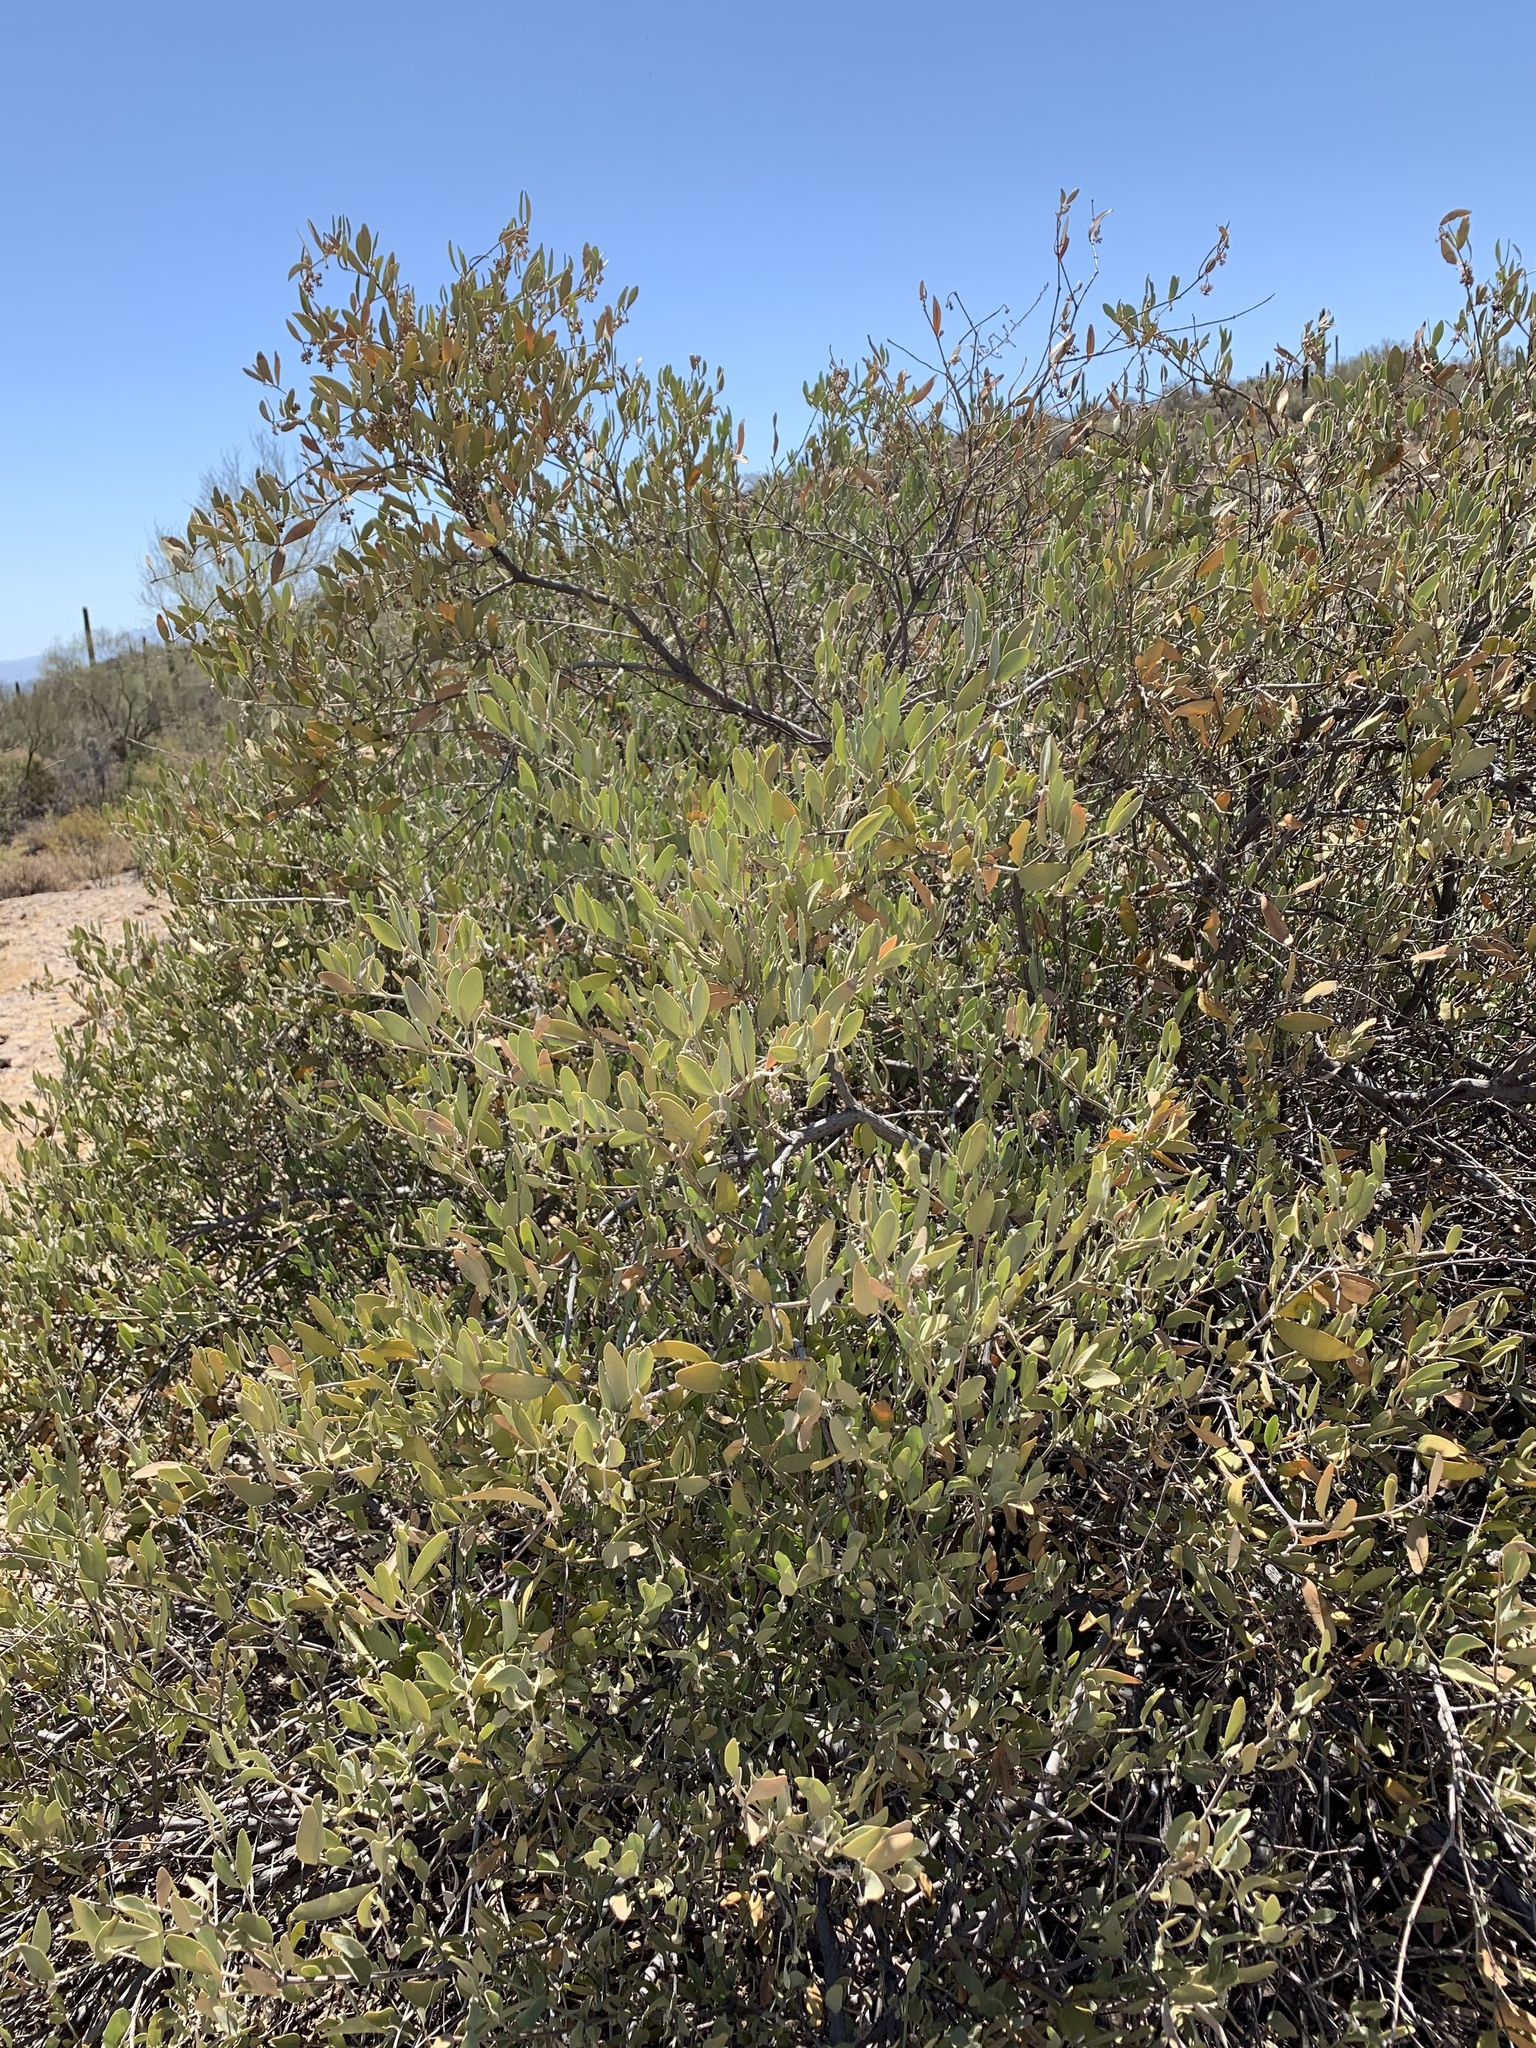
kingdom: Plantae
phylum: Tracheophyta
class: Magnoliopsida
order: Caryophyllales
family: Simmondsiaceae
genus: Simmondsia
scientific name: Simmondsia chinensis
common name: Jojoba
